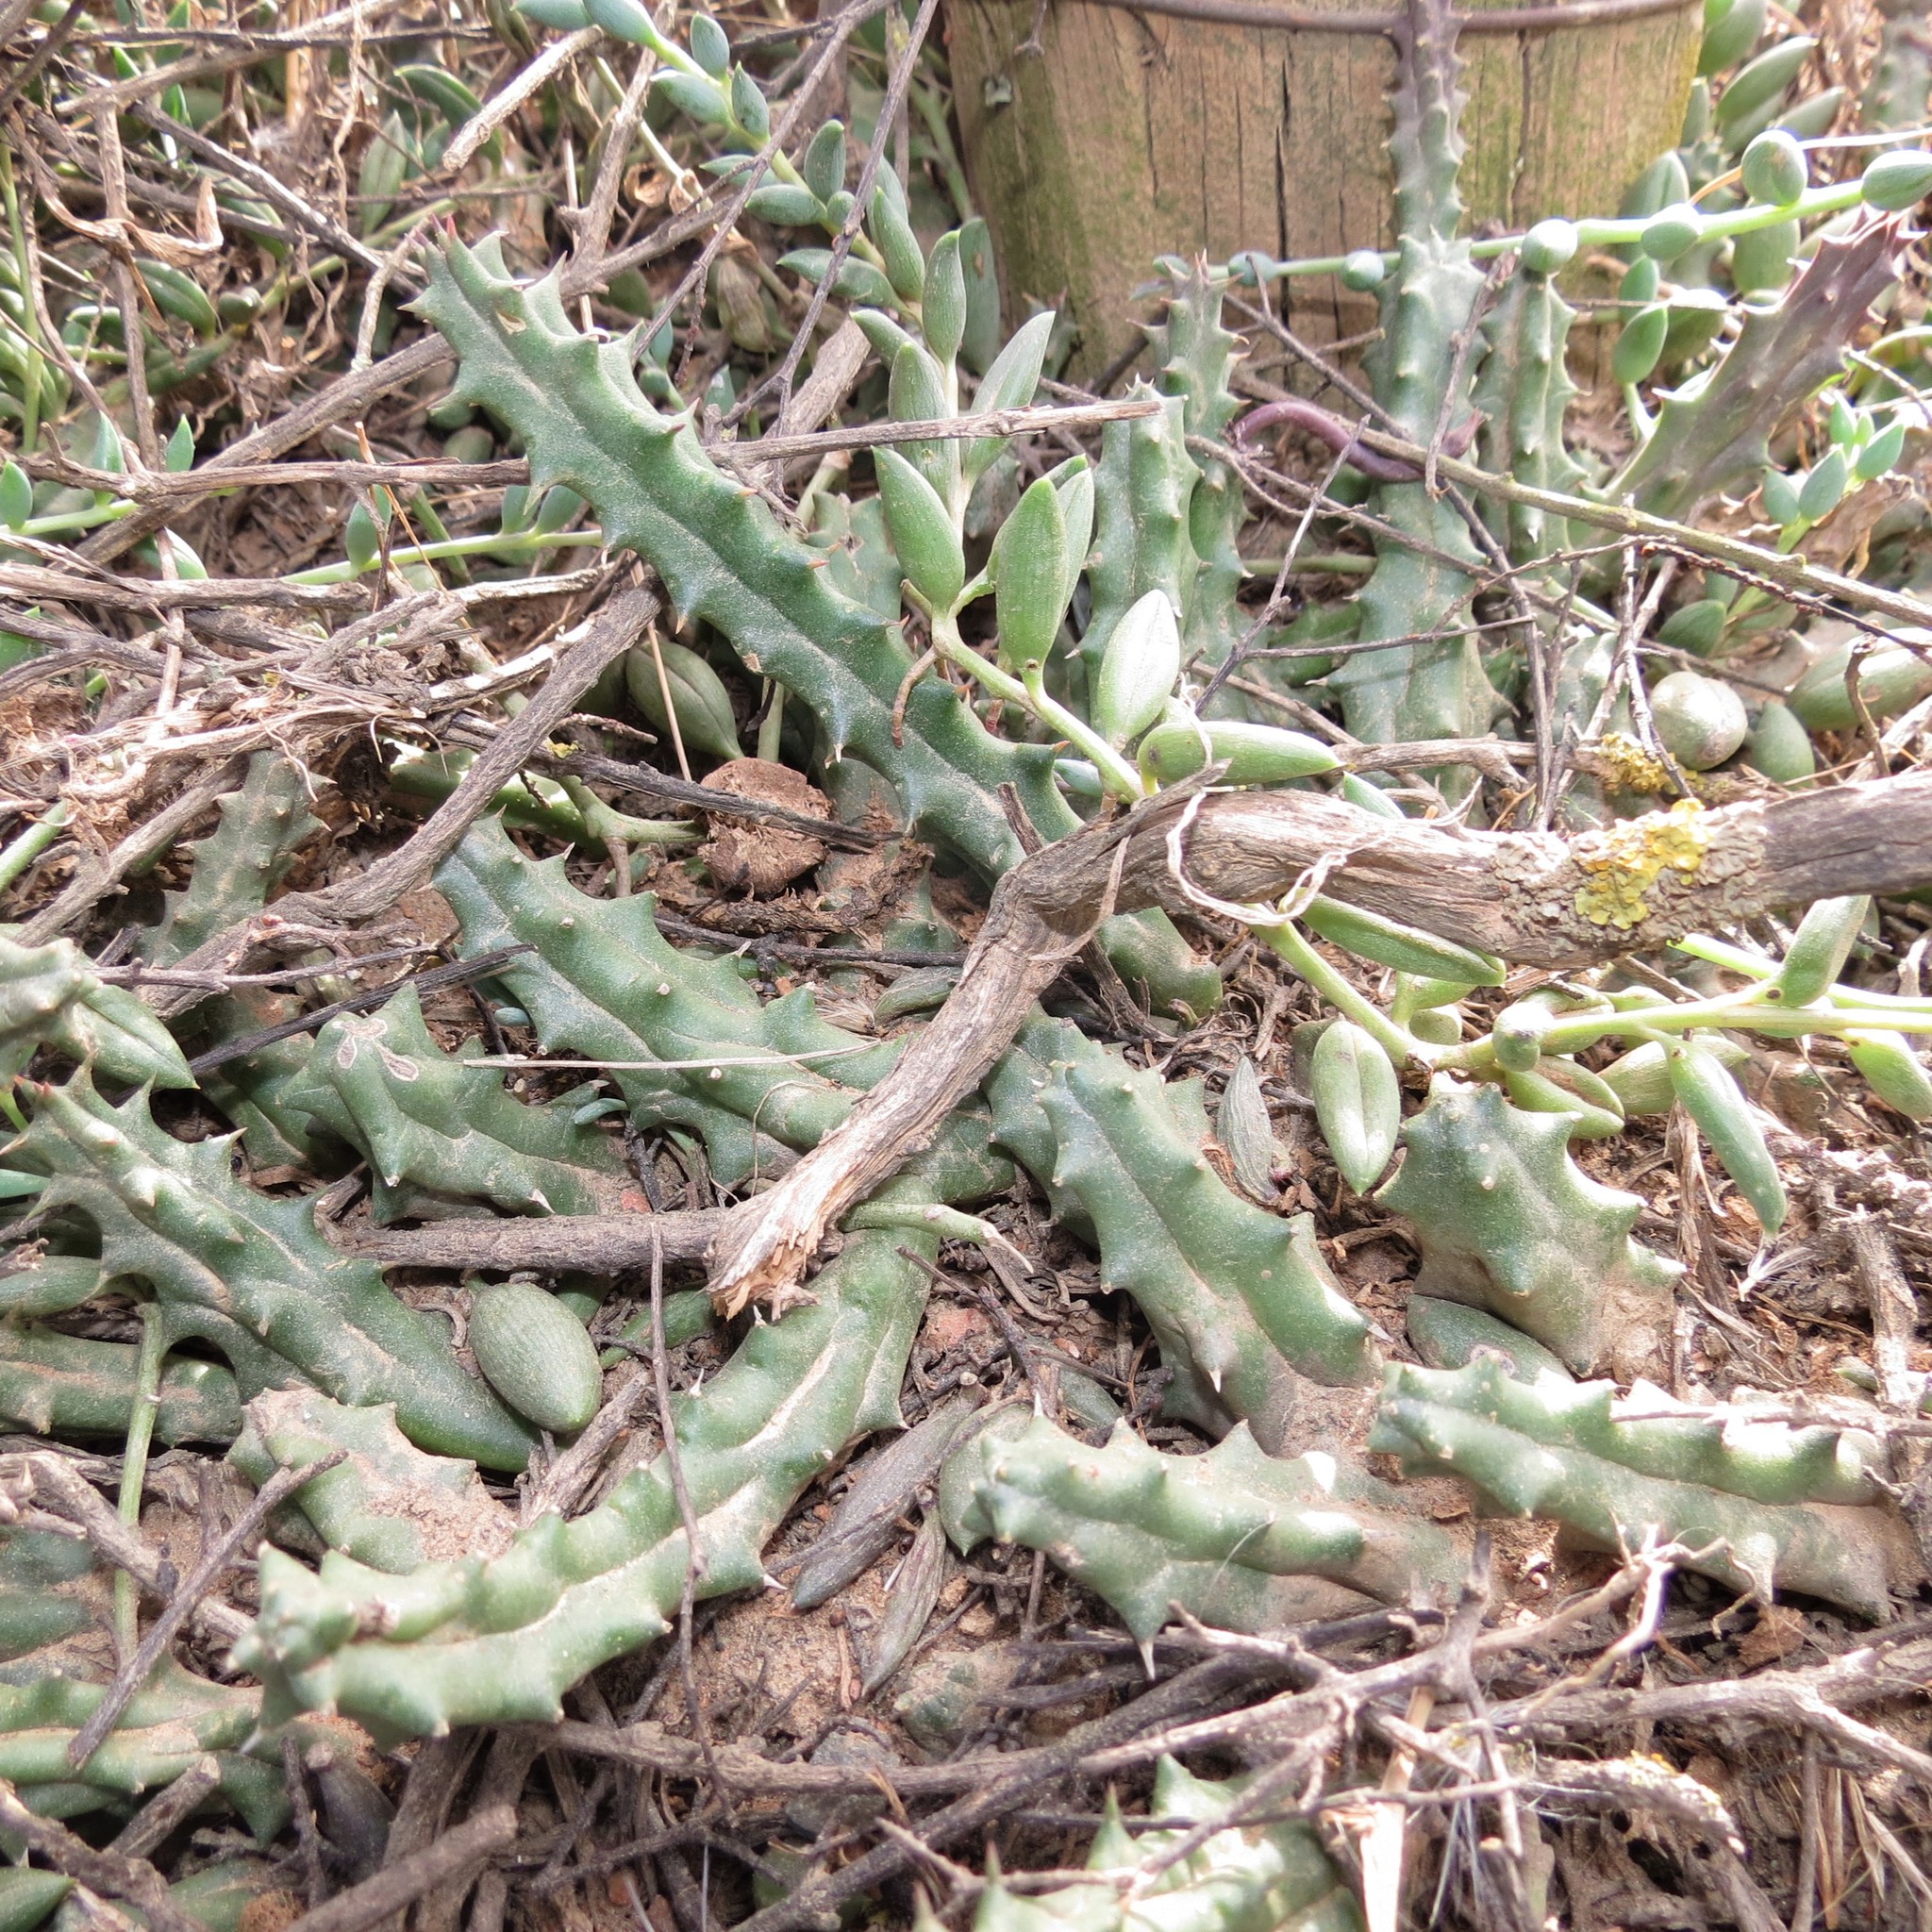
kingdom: Plantae
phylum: Tracheophyta
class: Magnoliopsida
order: Gentianales
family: Apocynaceae
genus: Ceropegia
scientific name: Ceropegia caespitosa
